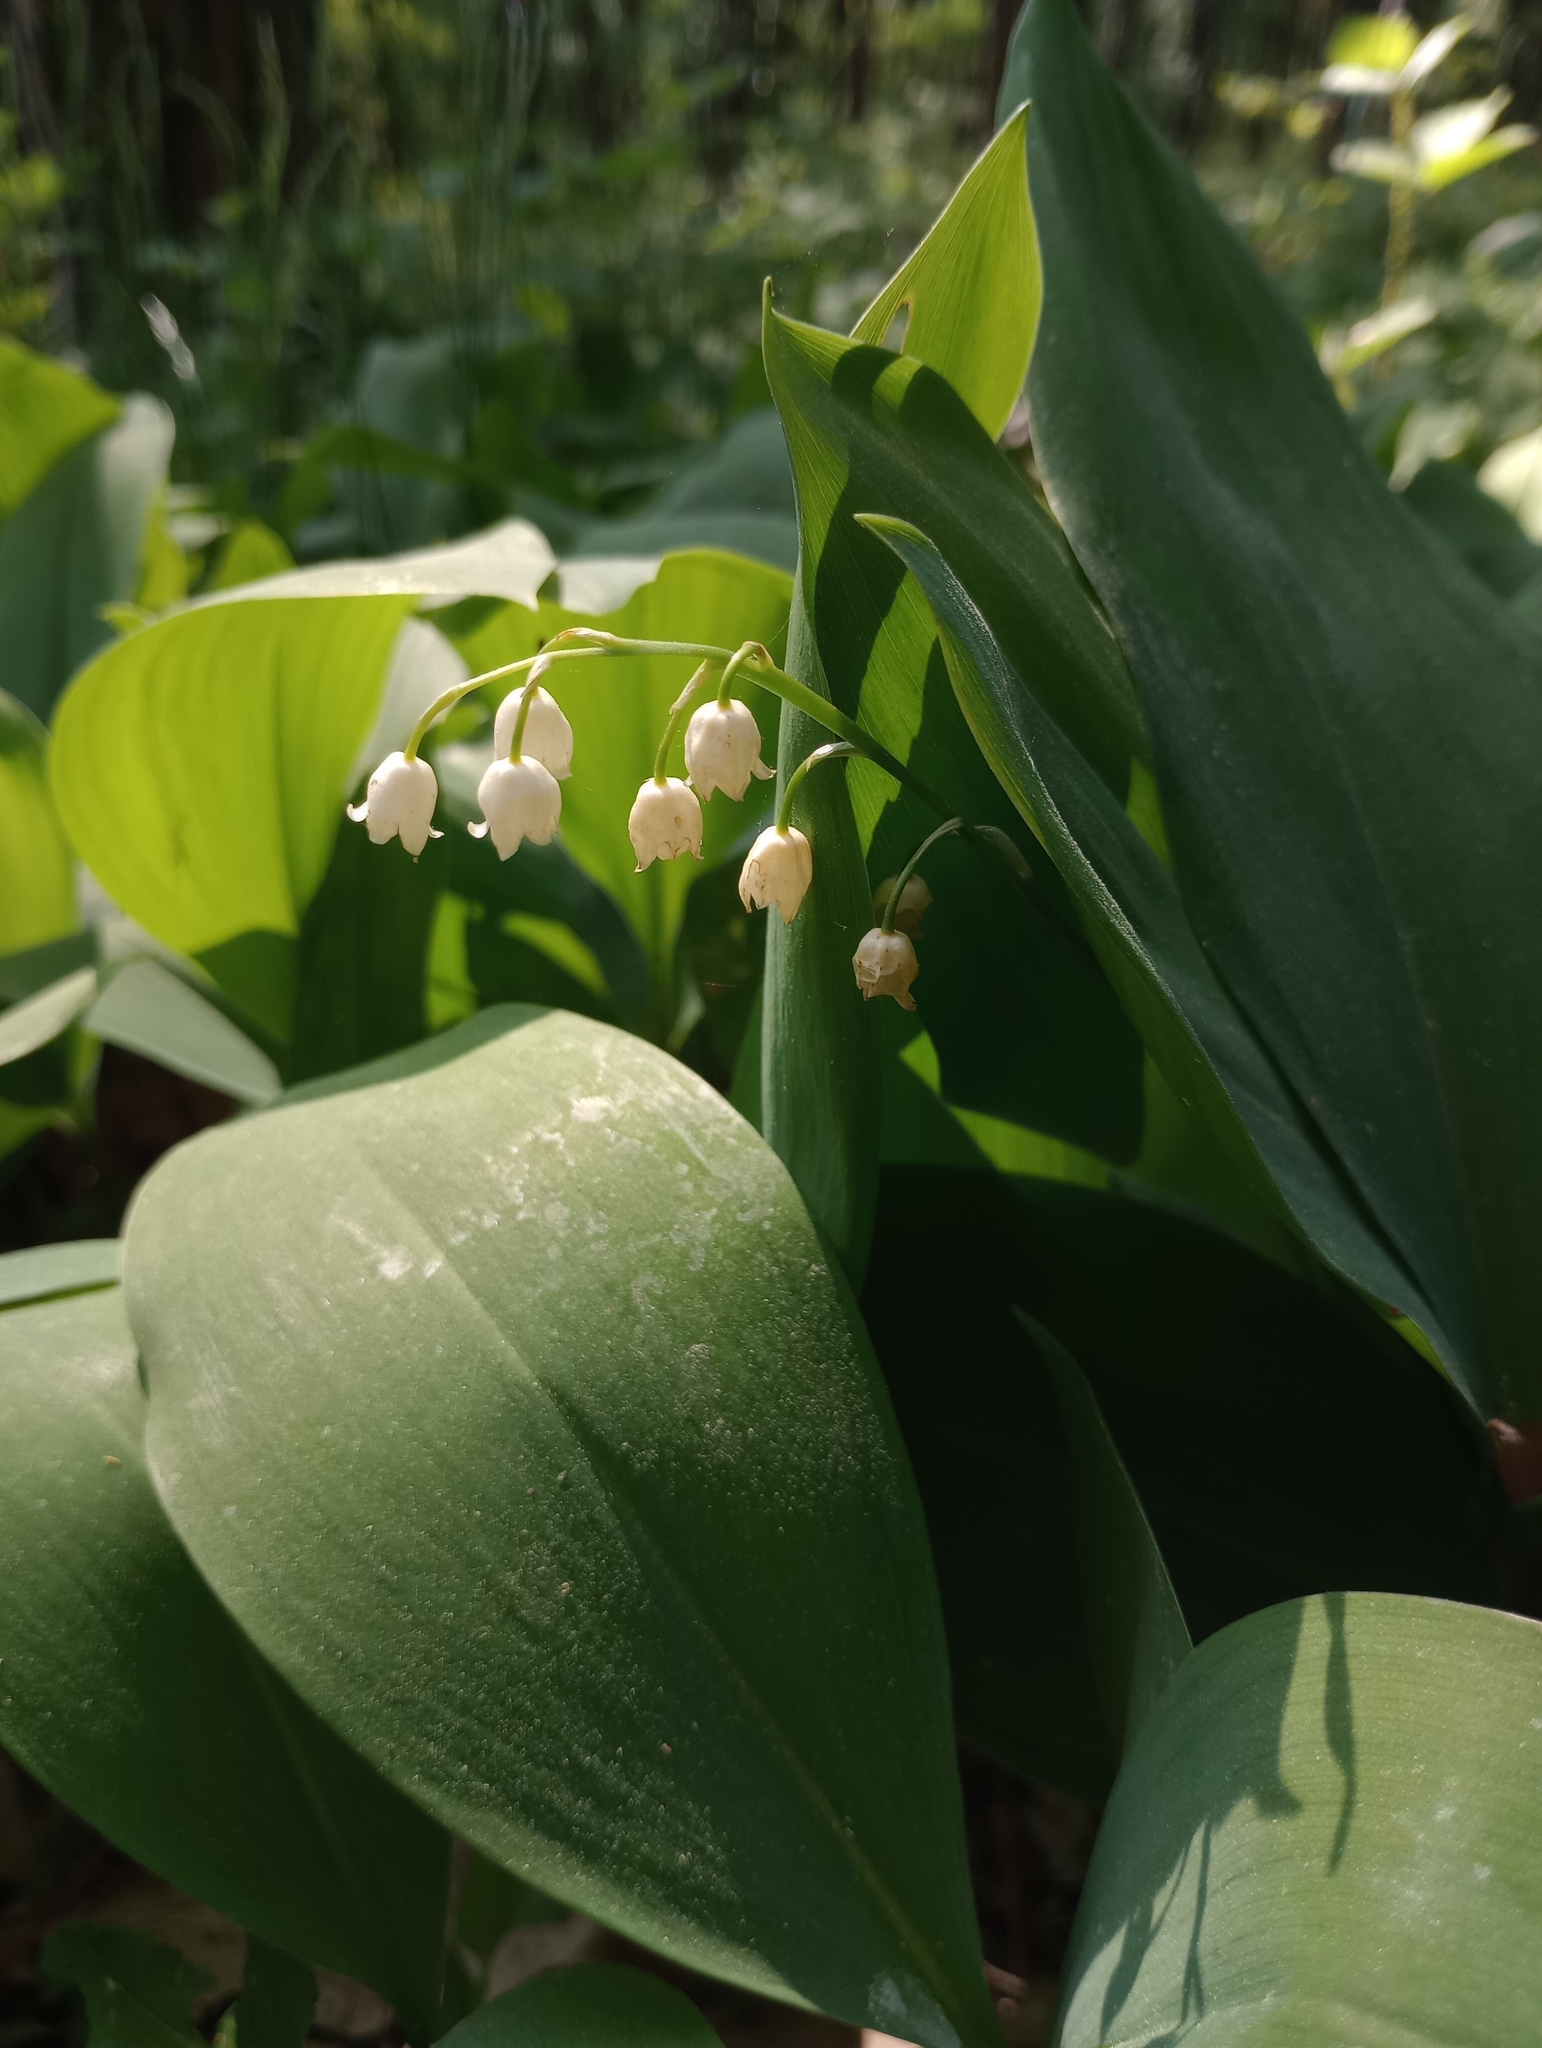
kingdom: Plantae
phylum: Tracheophyta
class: Liliopsida
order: Asparagales
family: Asparagaceae
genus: Convallaria
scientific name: Convallaria majalis
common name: Lily-of-the-valley
